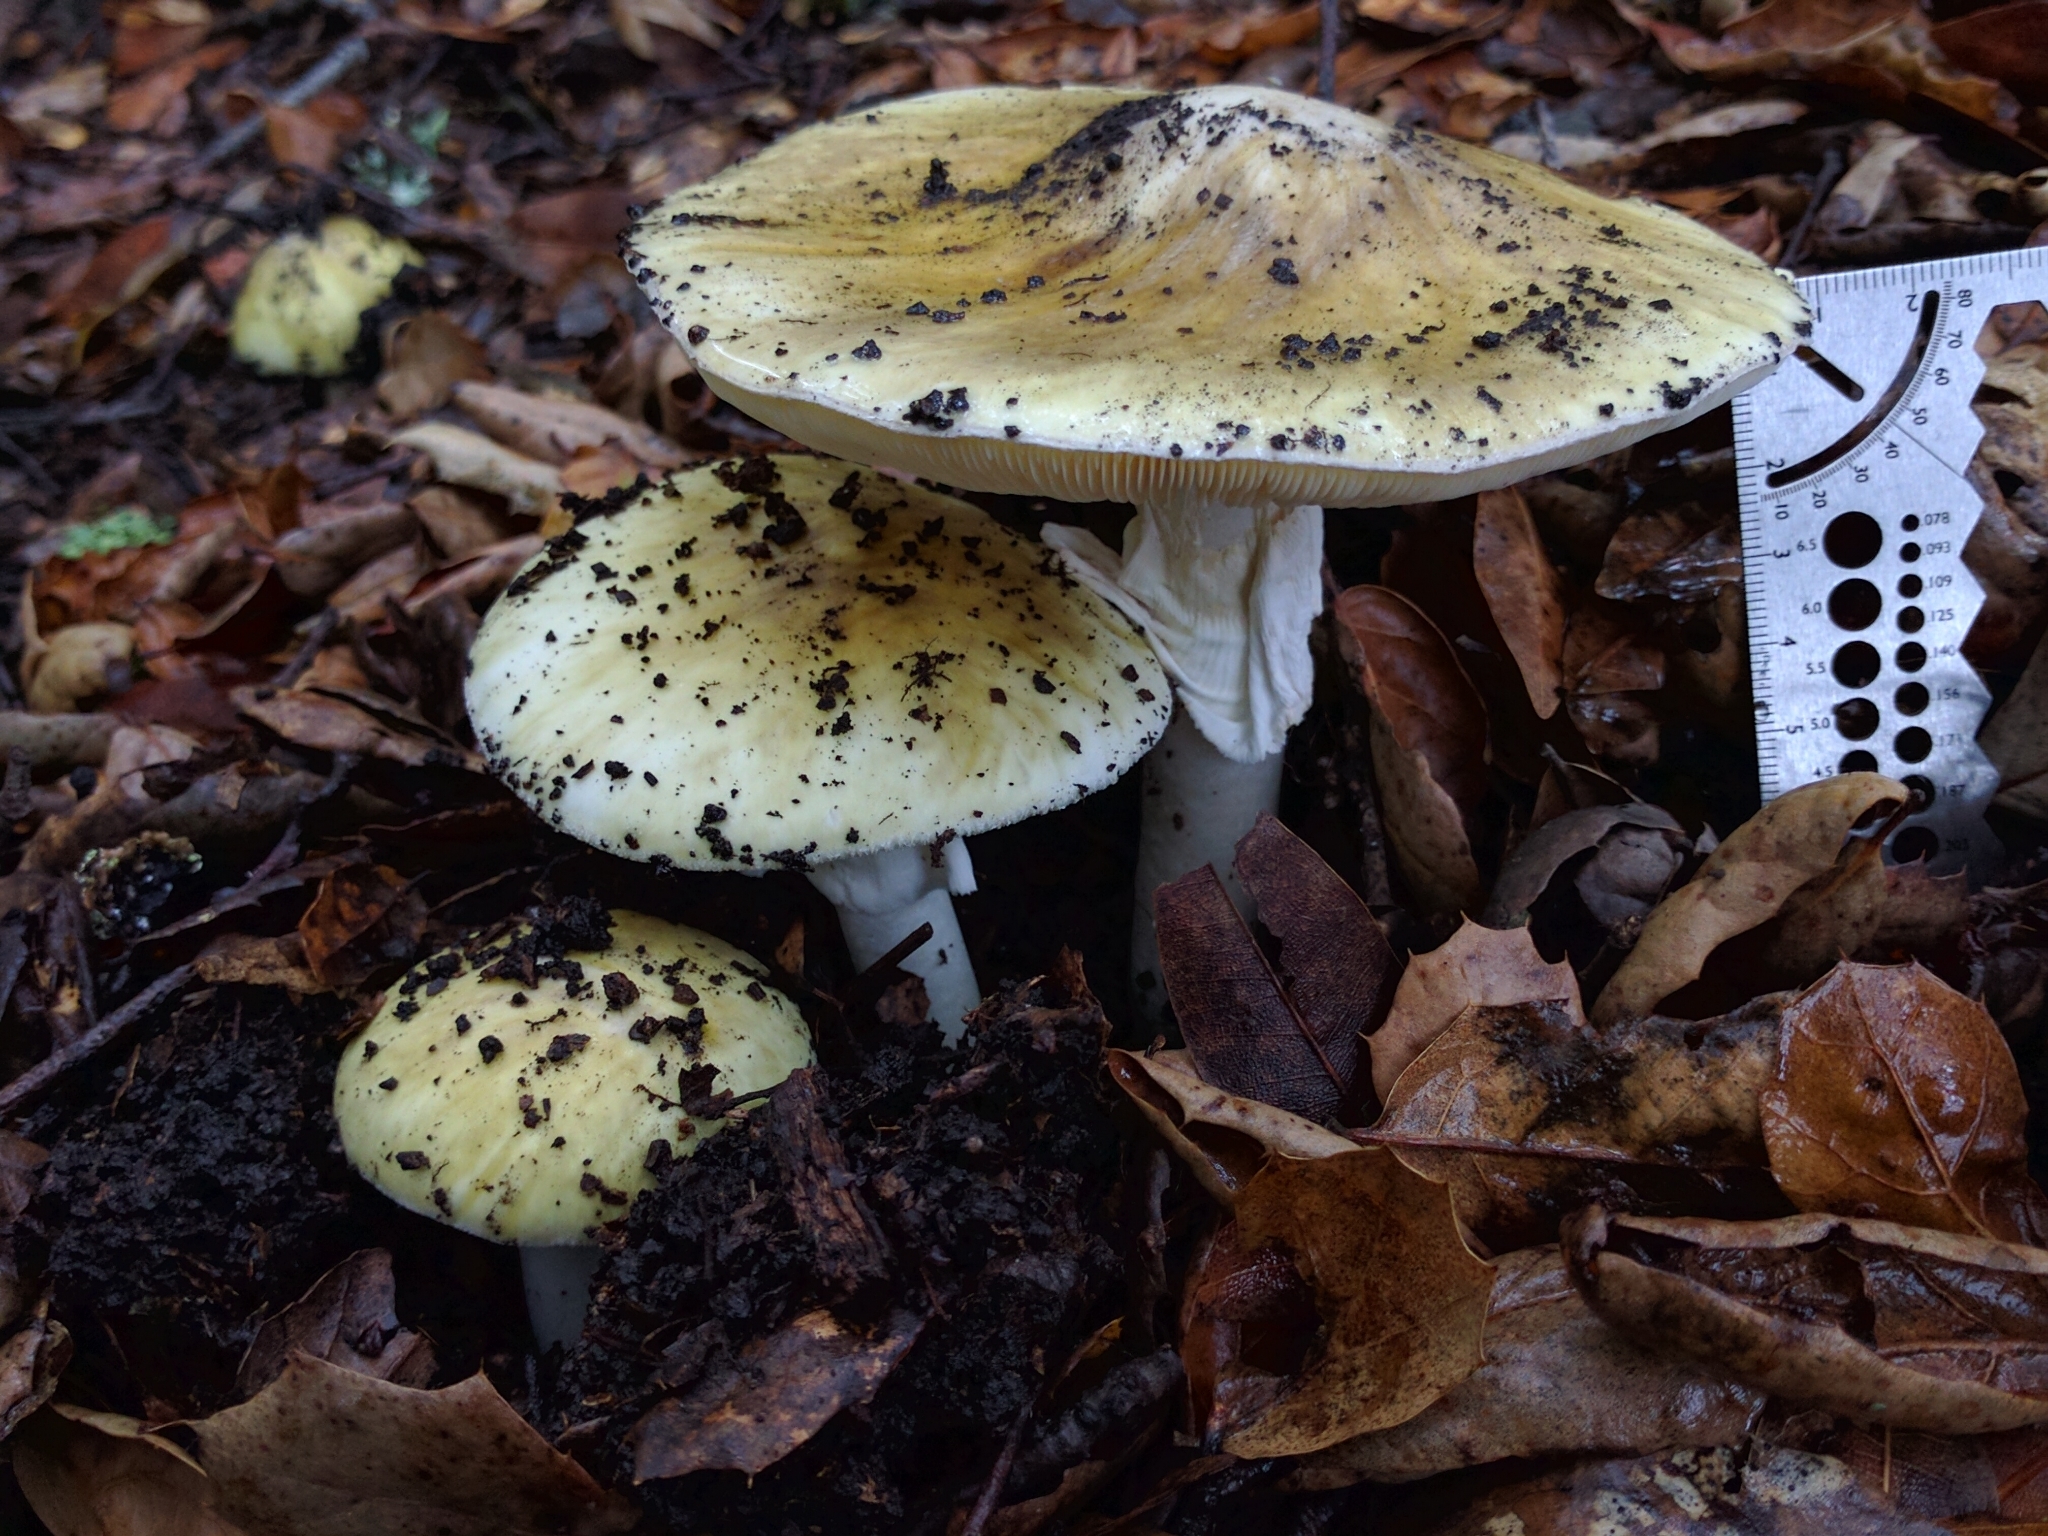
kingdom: Fungi
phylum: Basidiomycota
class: Agaricomycetes
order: Agaricales
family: Amanitaceae
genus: Amanita
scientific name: Amanita phalloides
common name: Death cap
